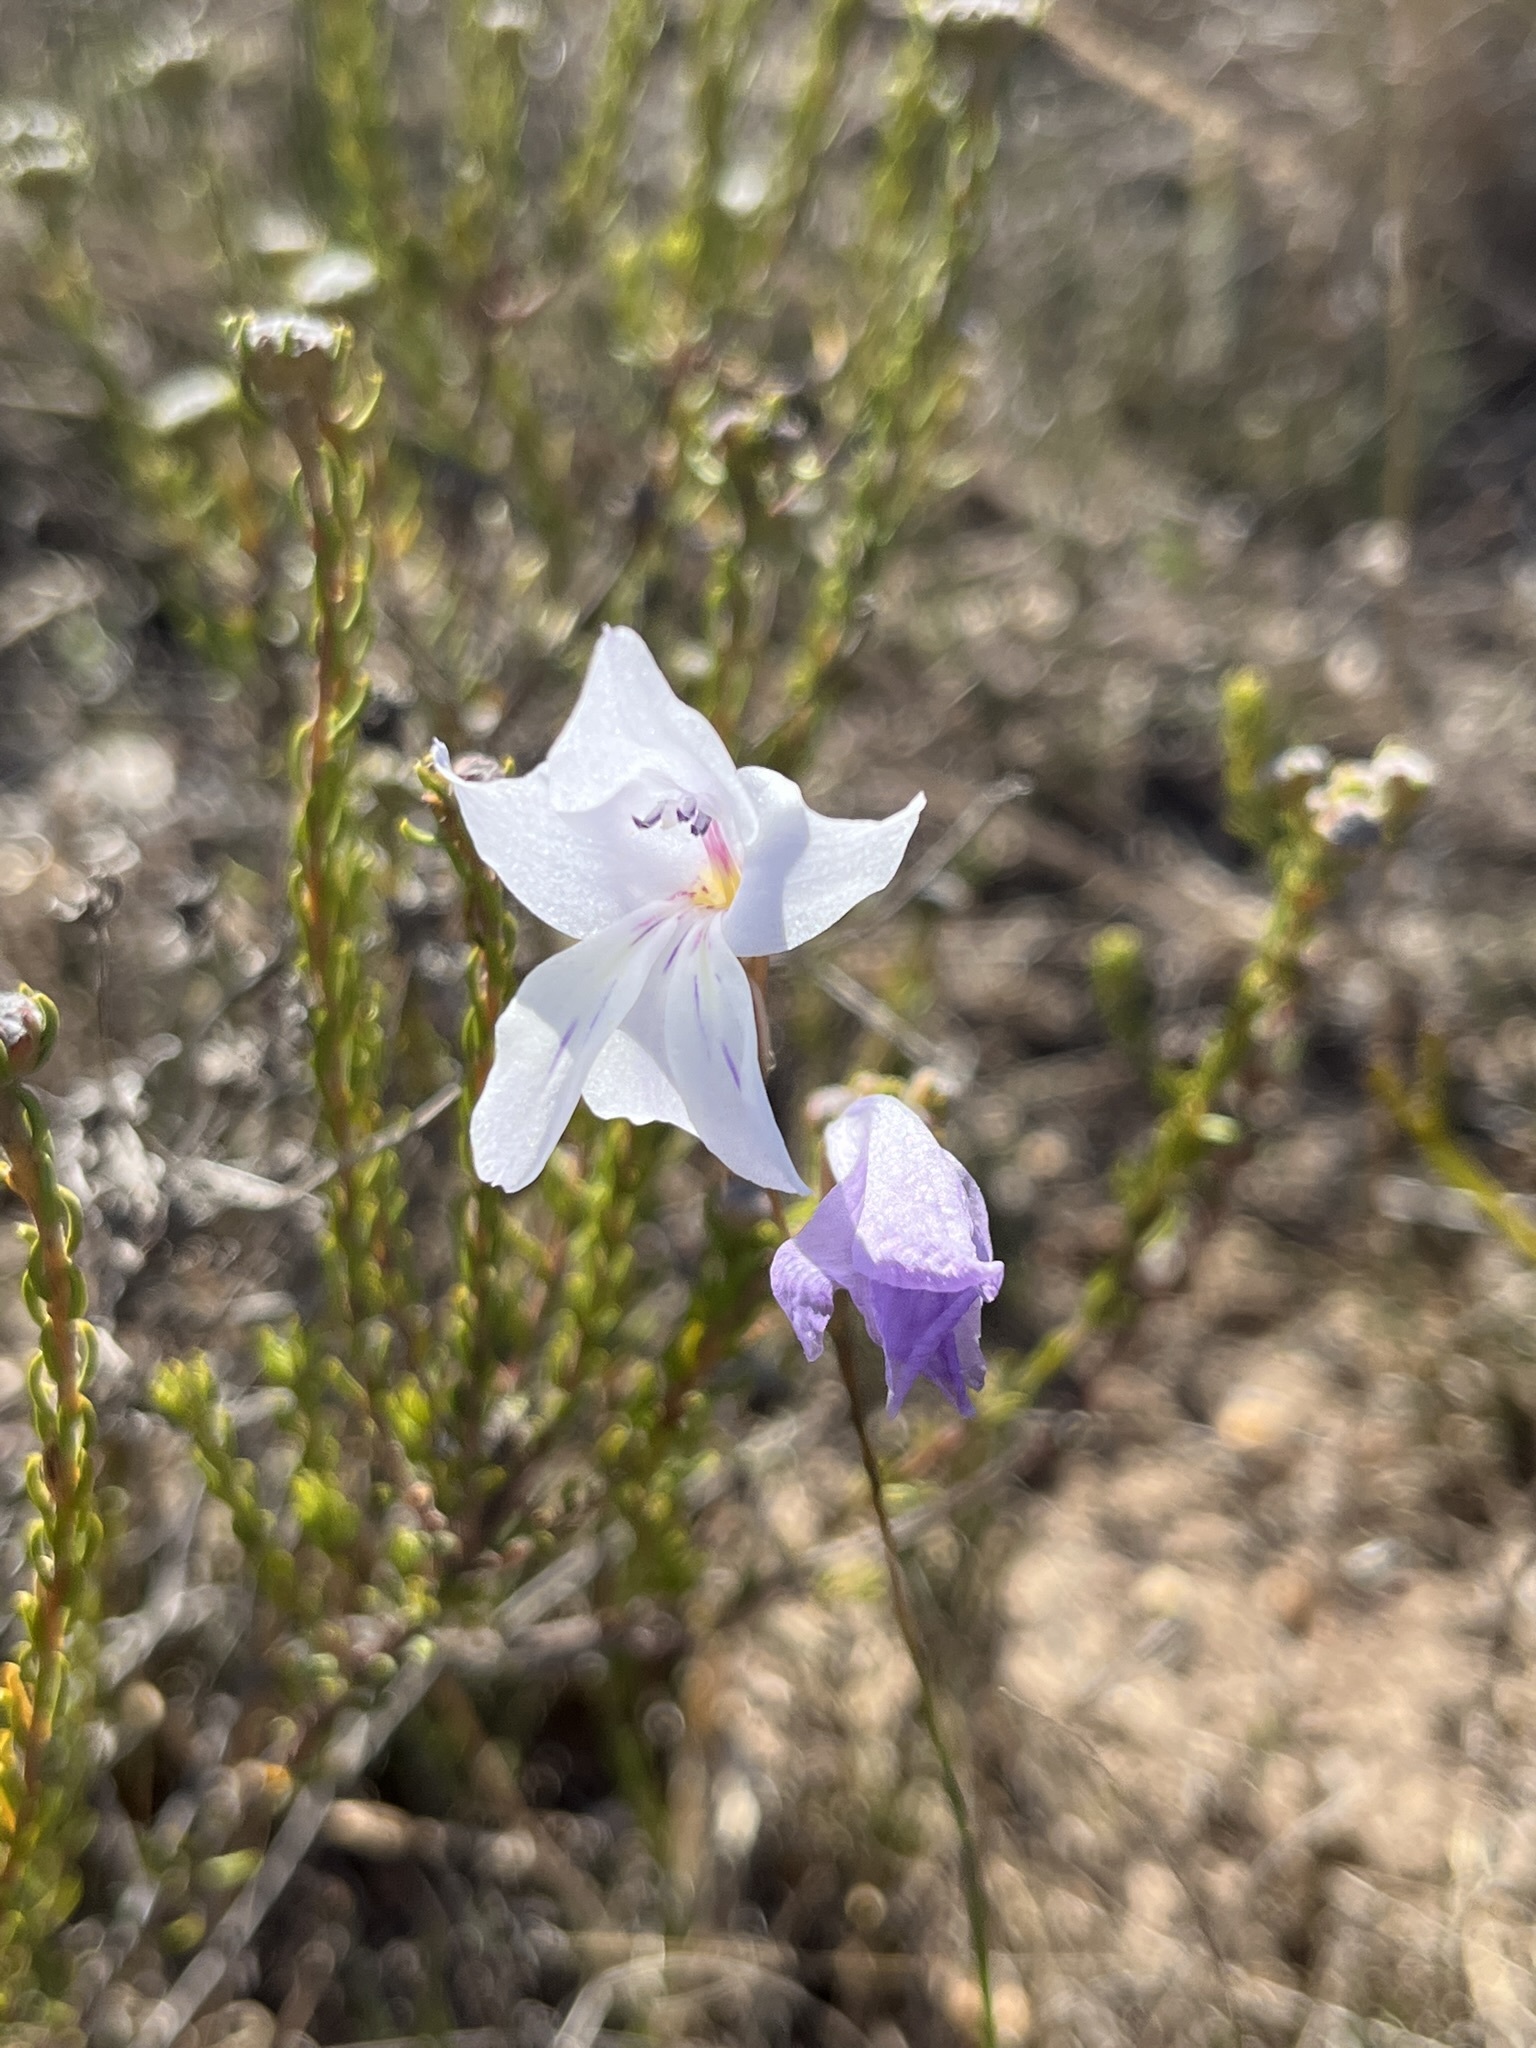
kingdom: Plantae
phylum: Tracheophyta
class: Liliopsida
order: Asparagales
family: Iridaceae
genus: Gladiolus
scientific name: Gladiolus vaginatus
